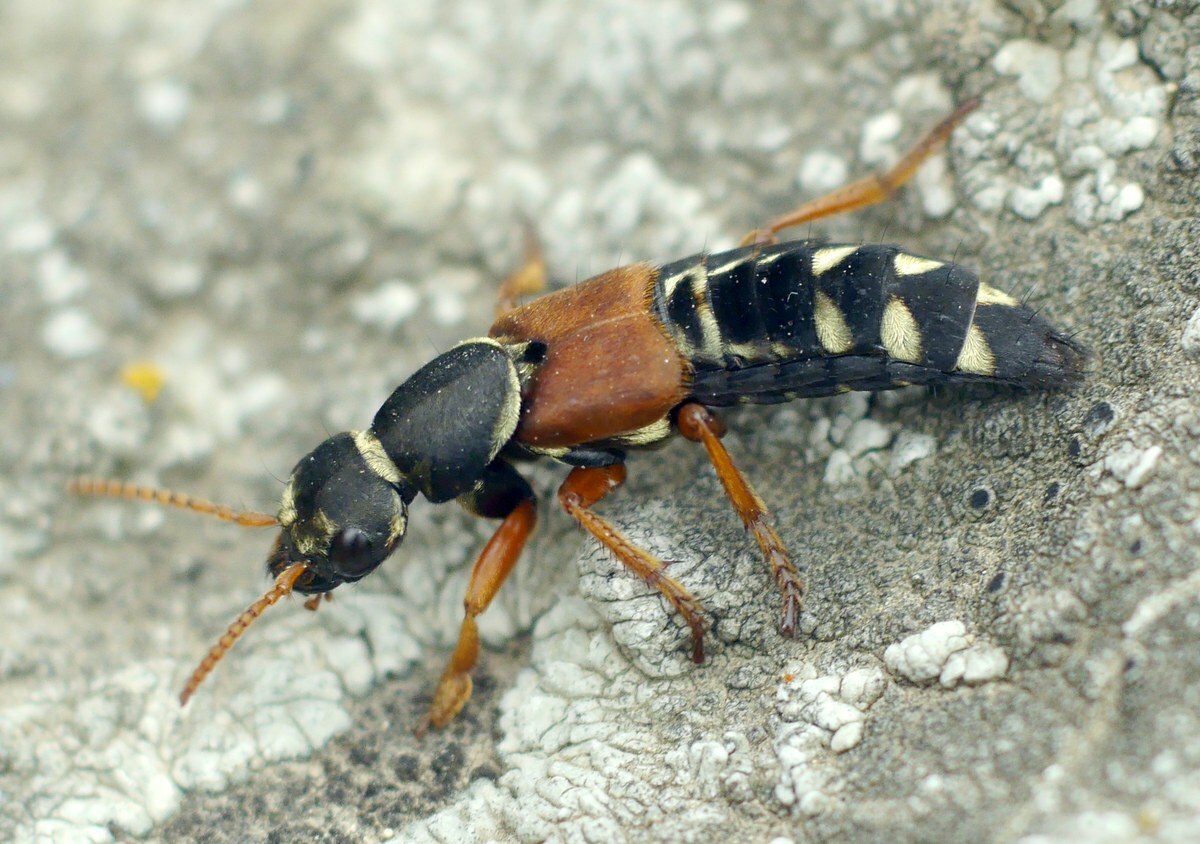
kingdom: Animalia
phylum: Arthropoda
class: Insecta
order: Coleoptera
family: Staphylinidae
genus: Staphylinus
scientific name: Staphylinus caesareus
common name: Staph beetle
